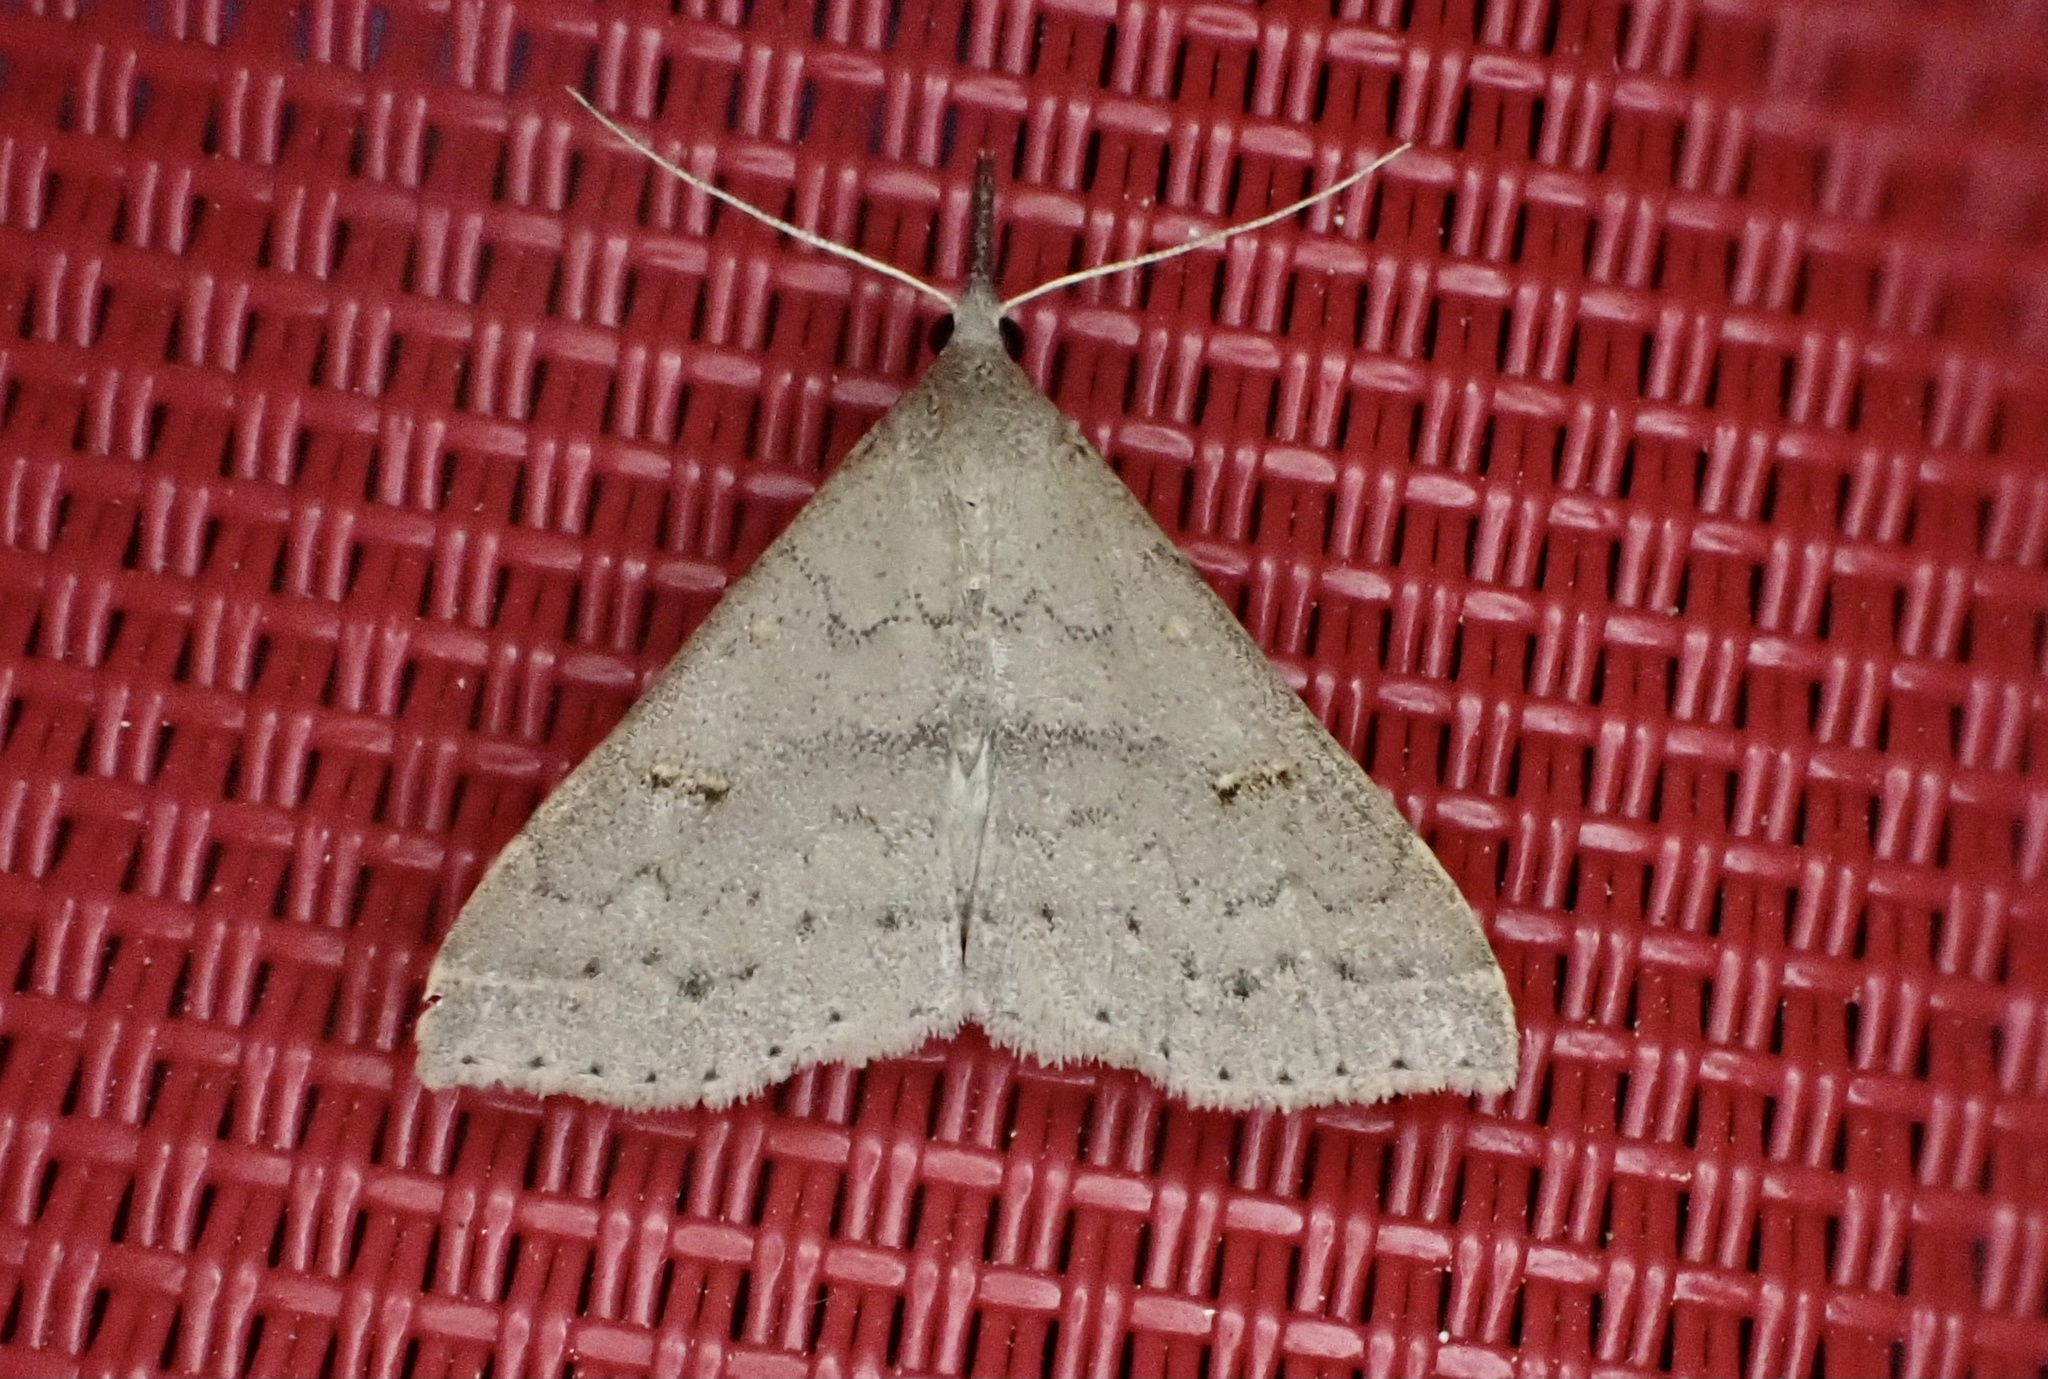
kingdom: Animalia
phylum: Arthropoda
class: Insecta
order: Lepidoptera
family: Erebidae
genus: Renia
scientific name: Renia adspergillus
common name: Speckled renia moth
